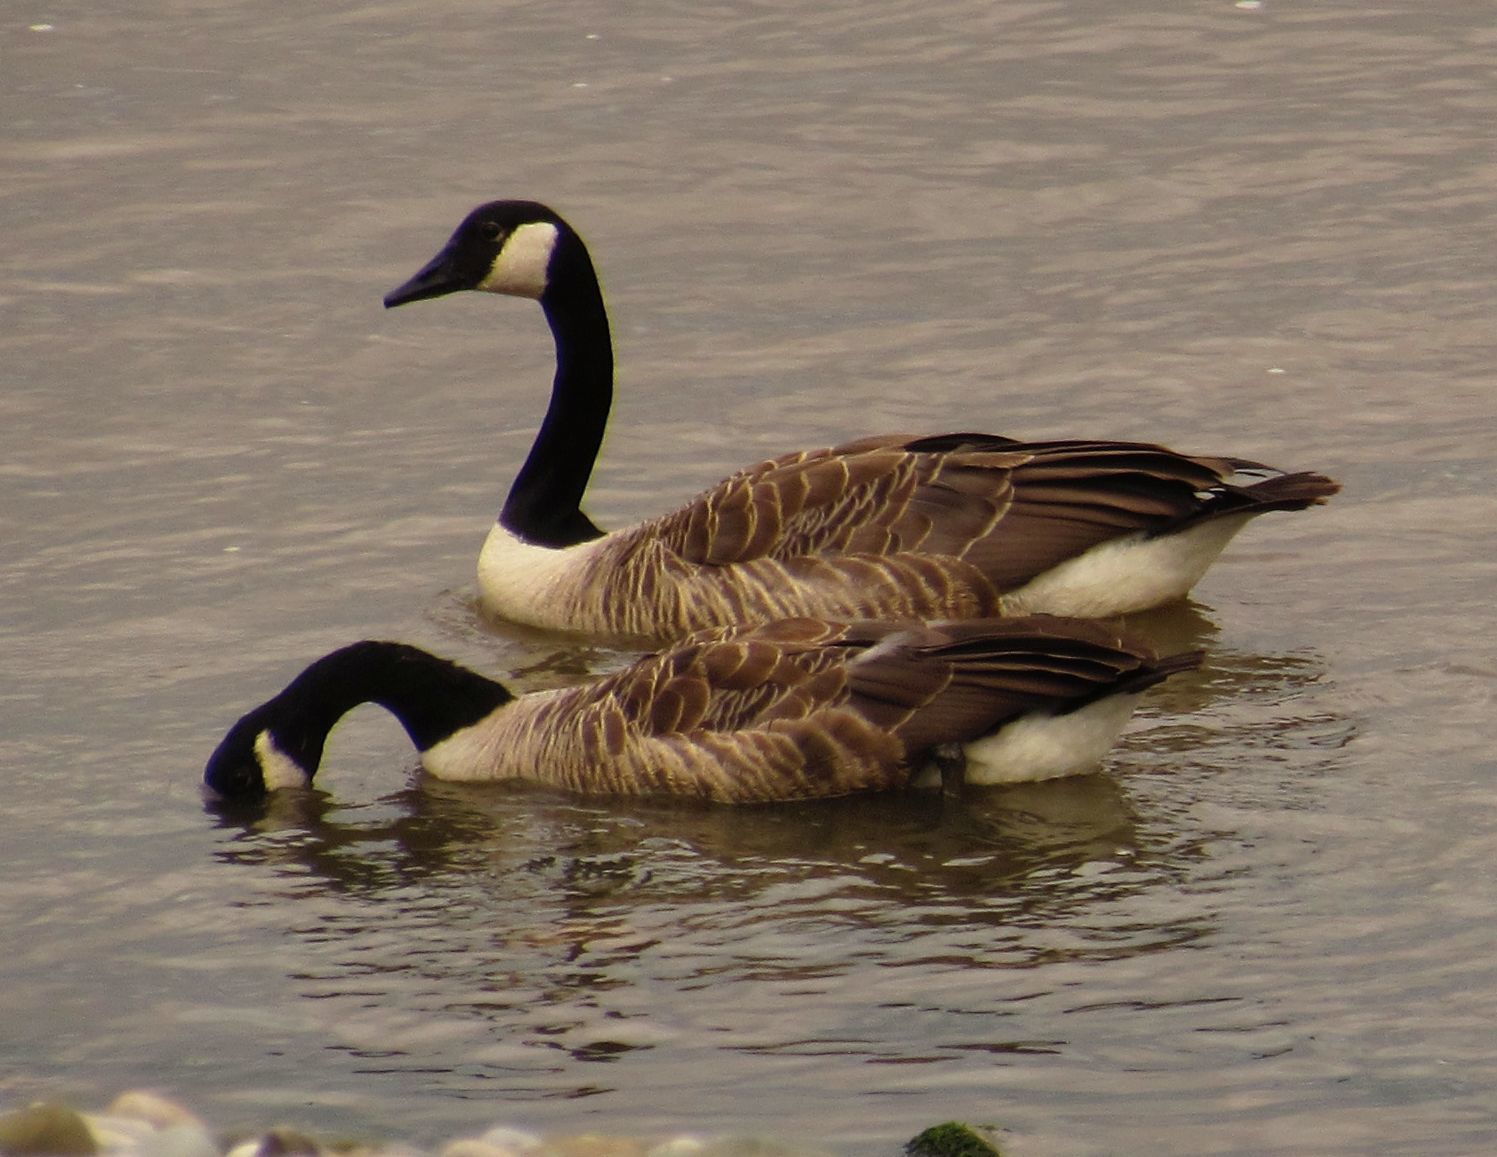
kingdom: Animalia
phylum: Chordata
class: Aves
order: Anseriformes
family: Anatidae
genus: Branta
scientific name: Branta canadensis
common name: Canada goose
